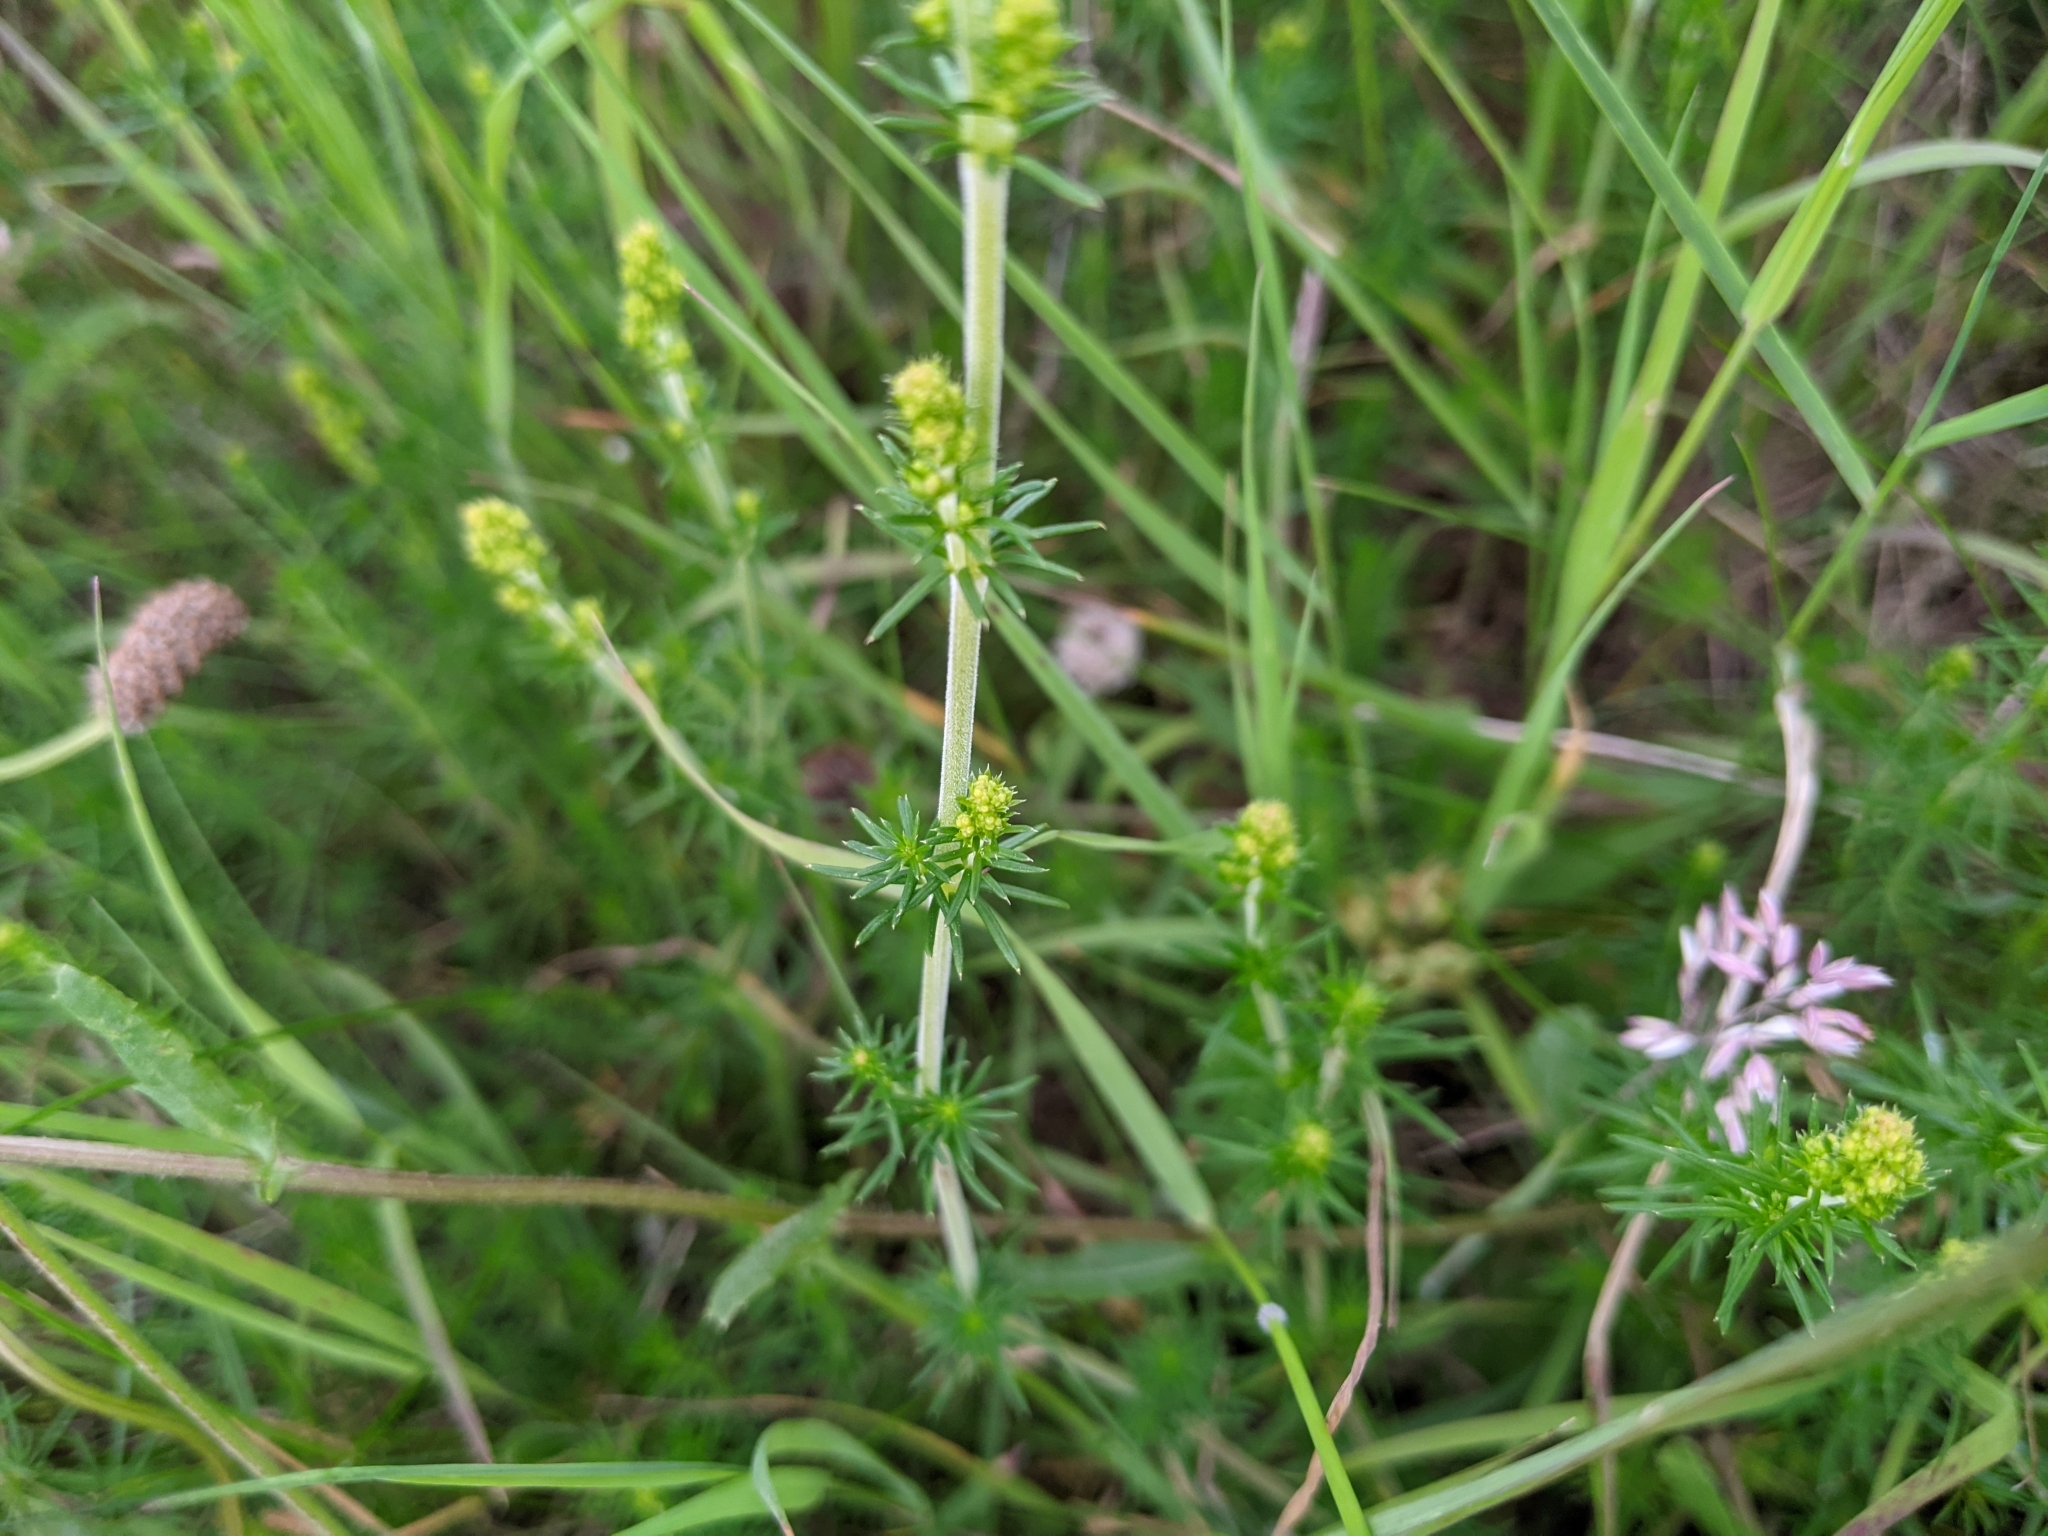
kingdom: Plantae
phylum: Tracheophyta
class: Magnoliopsida
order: Gentianales
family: Rubiaceae
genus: Galium
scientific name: Galium verum
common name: Lady's bedstraw
